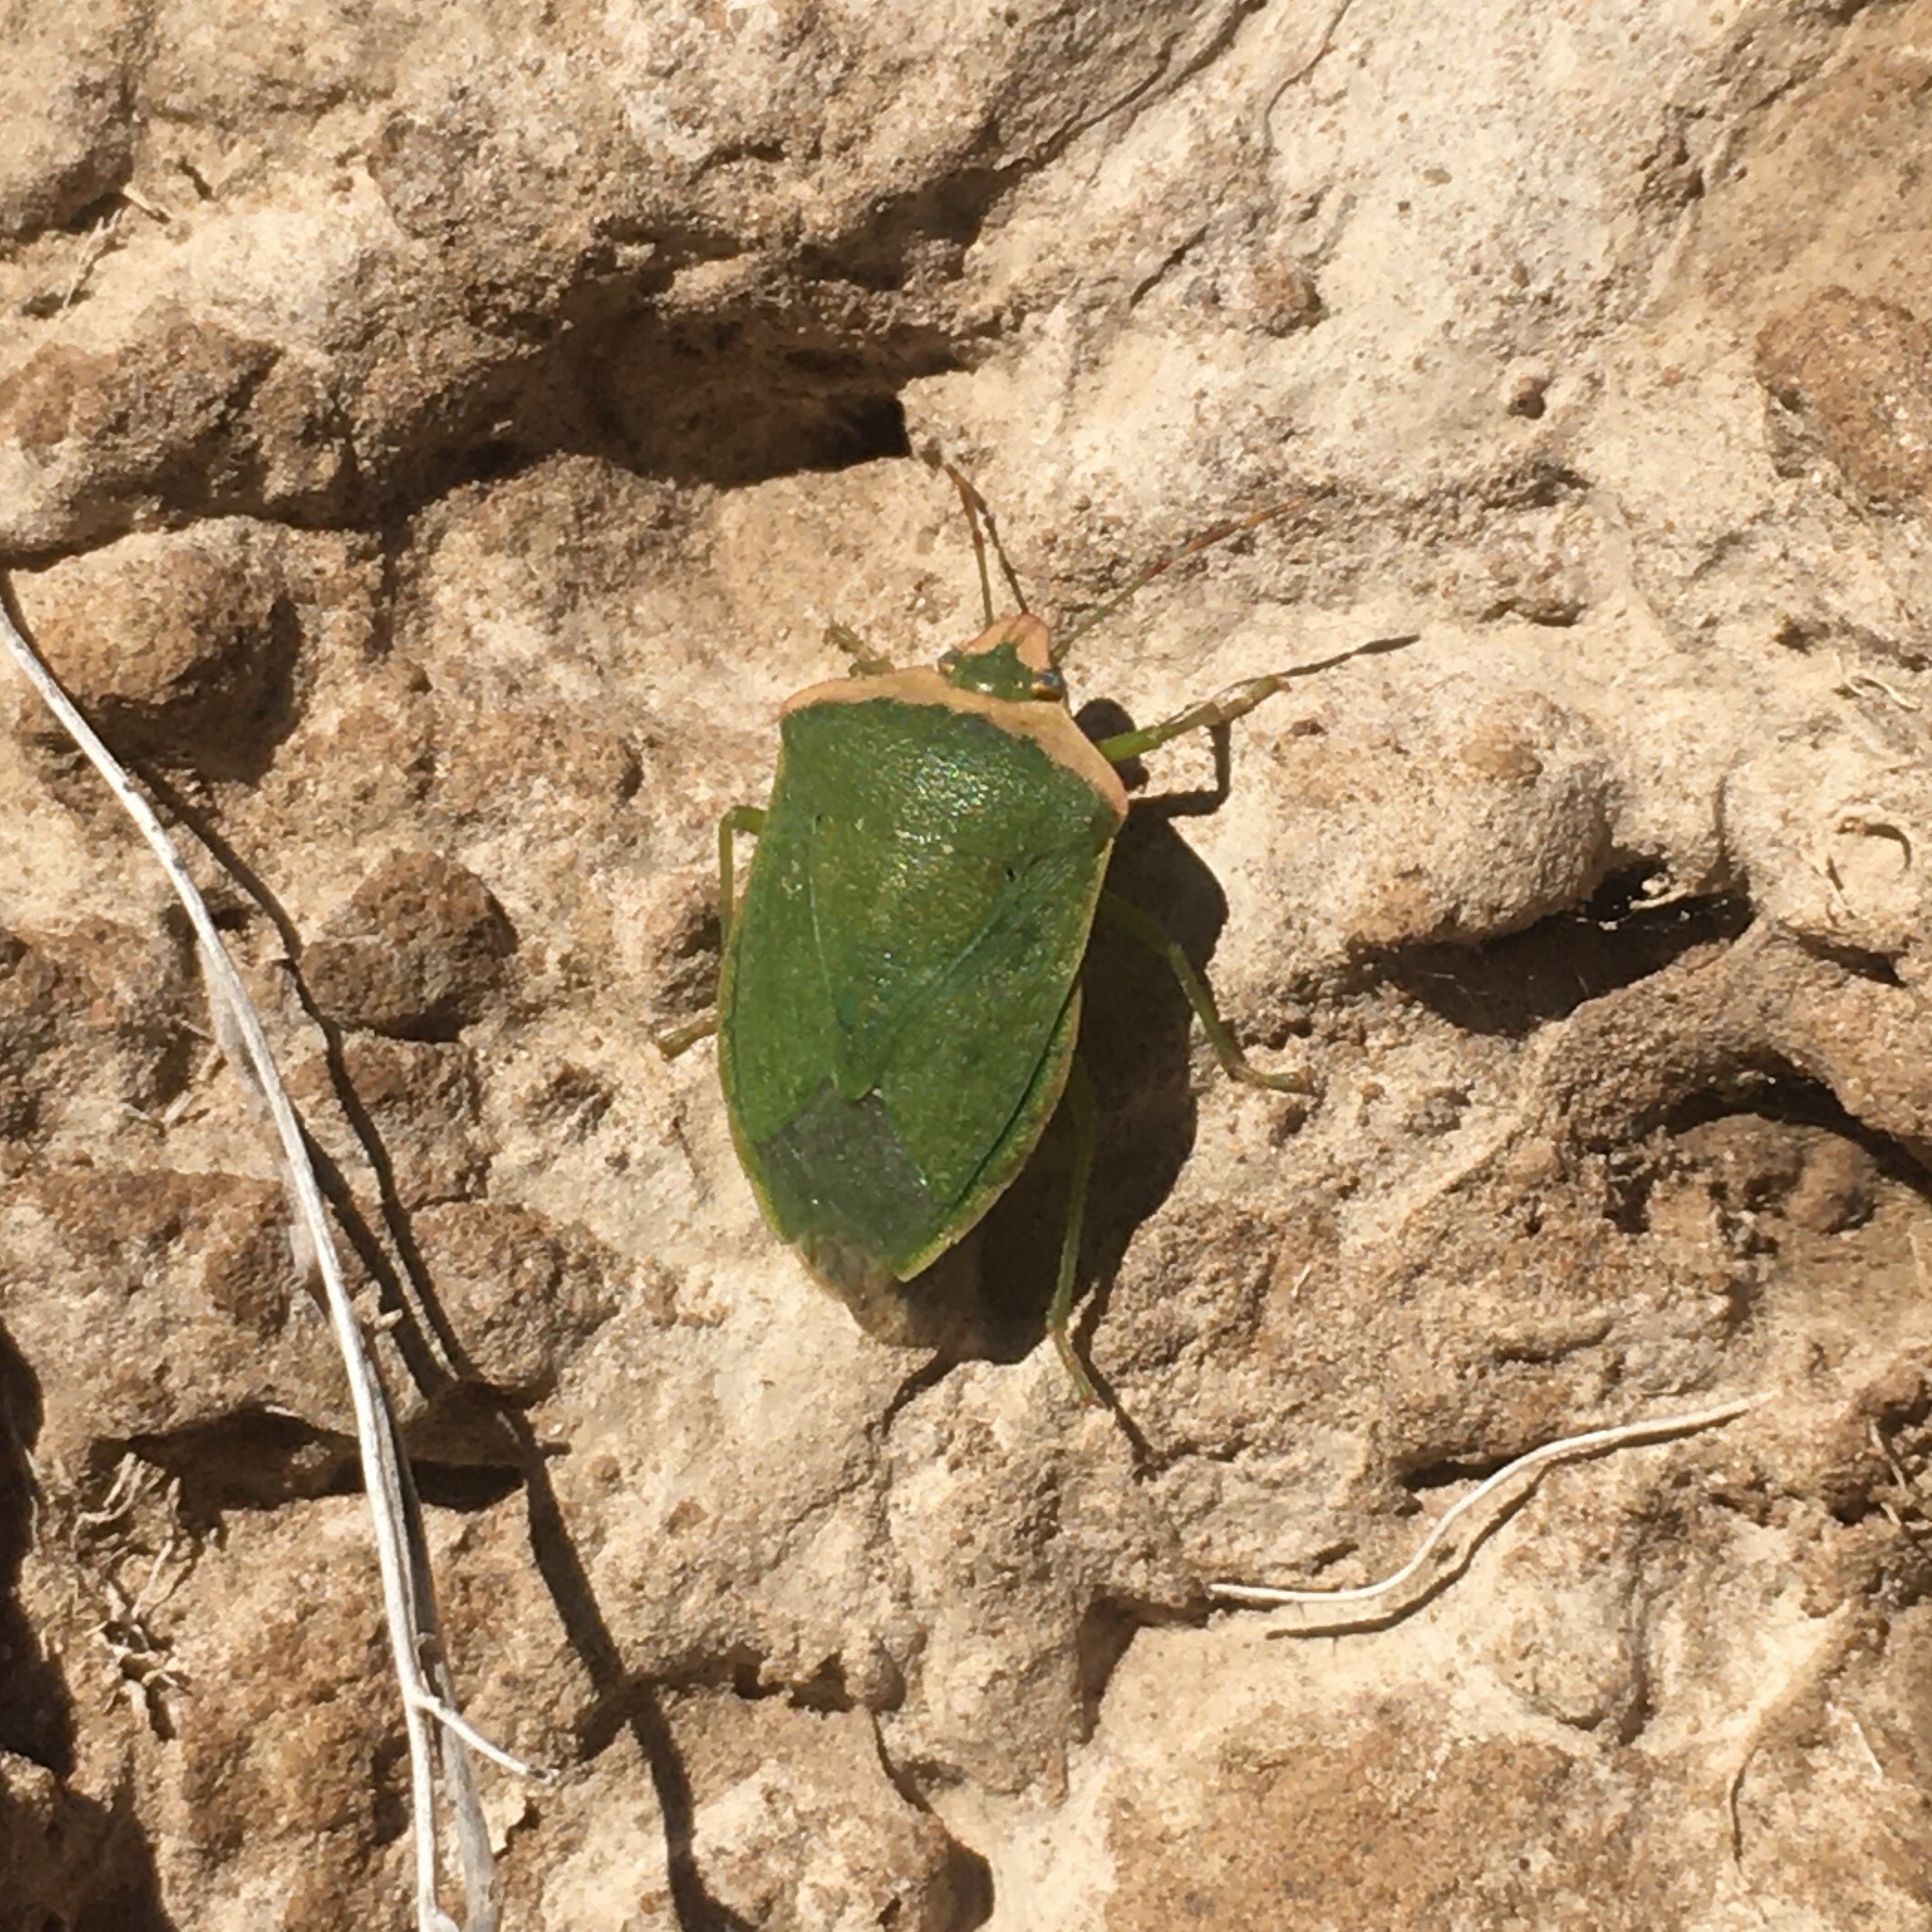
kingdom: Animalia
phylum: Arthropoda
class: Insecta
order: Hemiptera
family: Pentatomidae
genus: Nezara
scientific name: Nezara viridula
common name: Southern green stink bug
